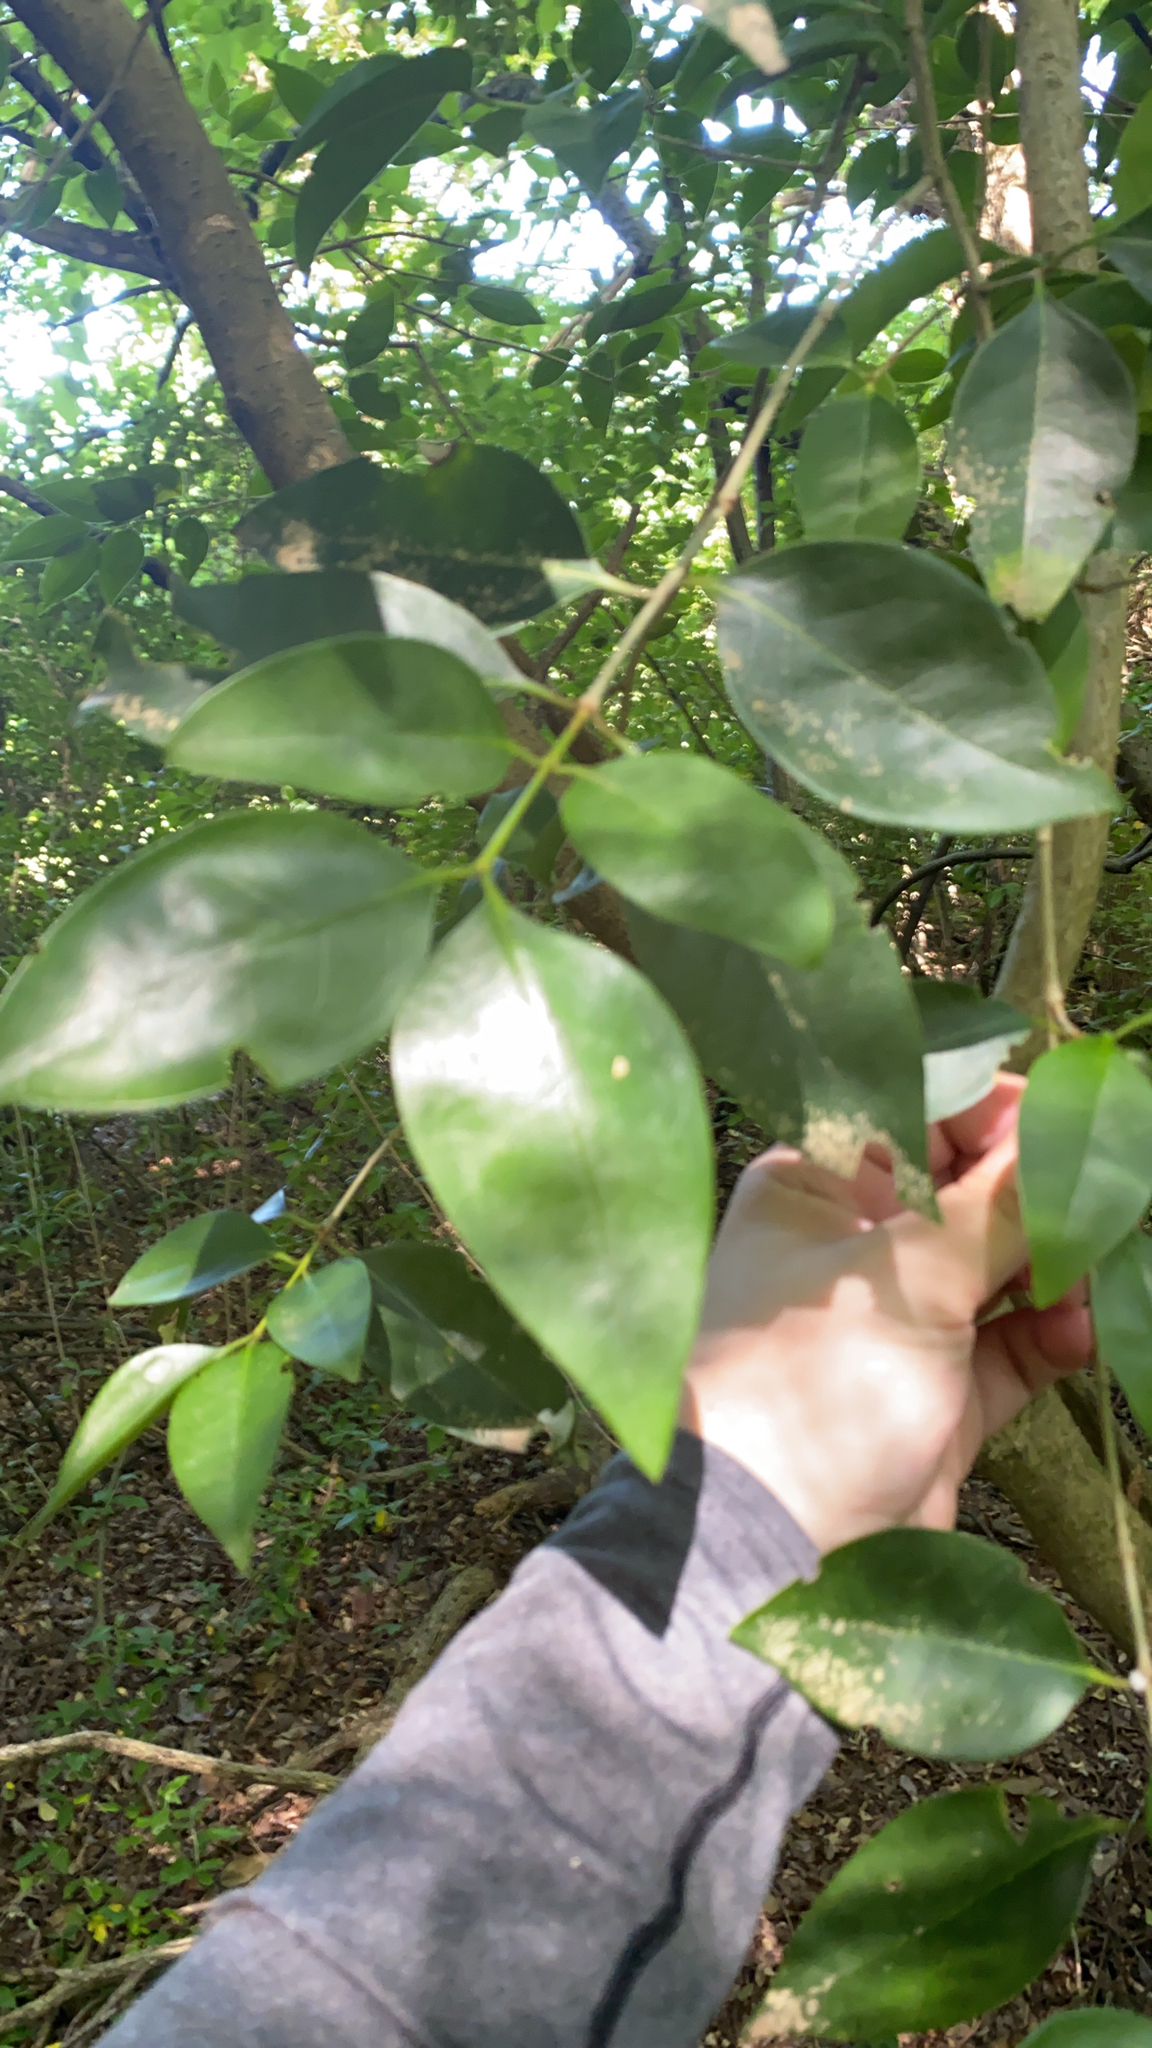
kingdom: Plantae
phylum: Tracheophyta
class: Magnoliopsida
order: Lamiales
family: Oleaceae
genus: Ligustrum
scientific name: Ligustrum lucidum
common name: Glossy privet
